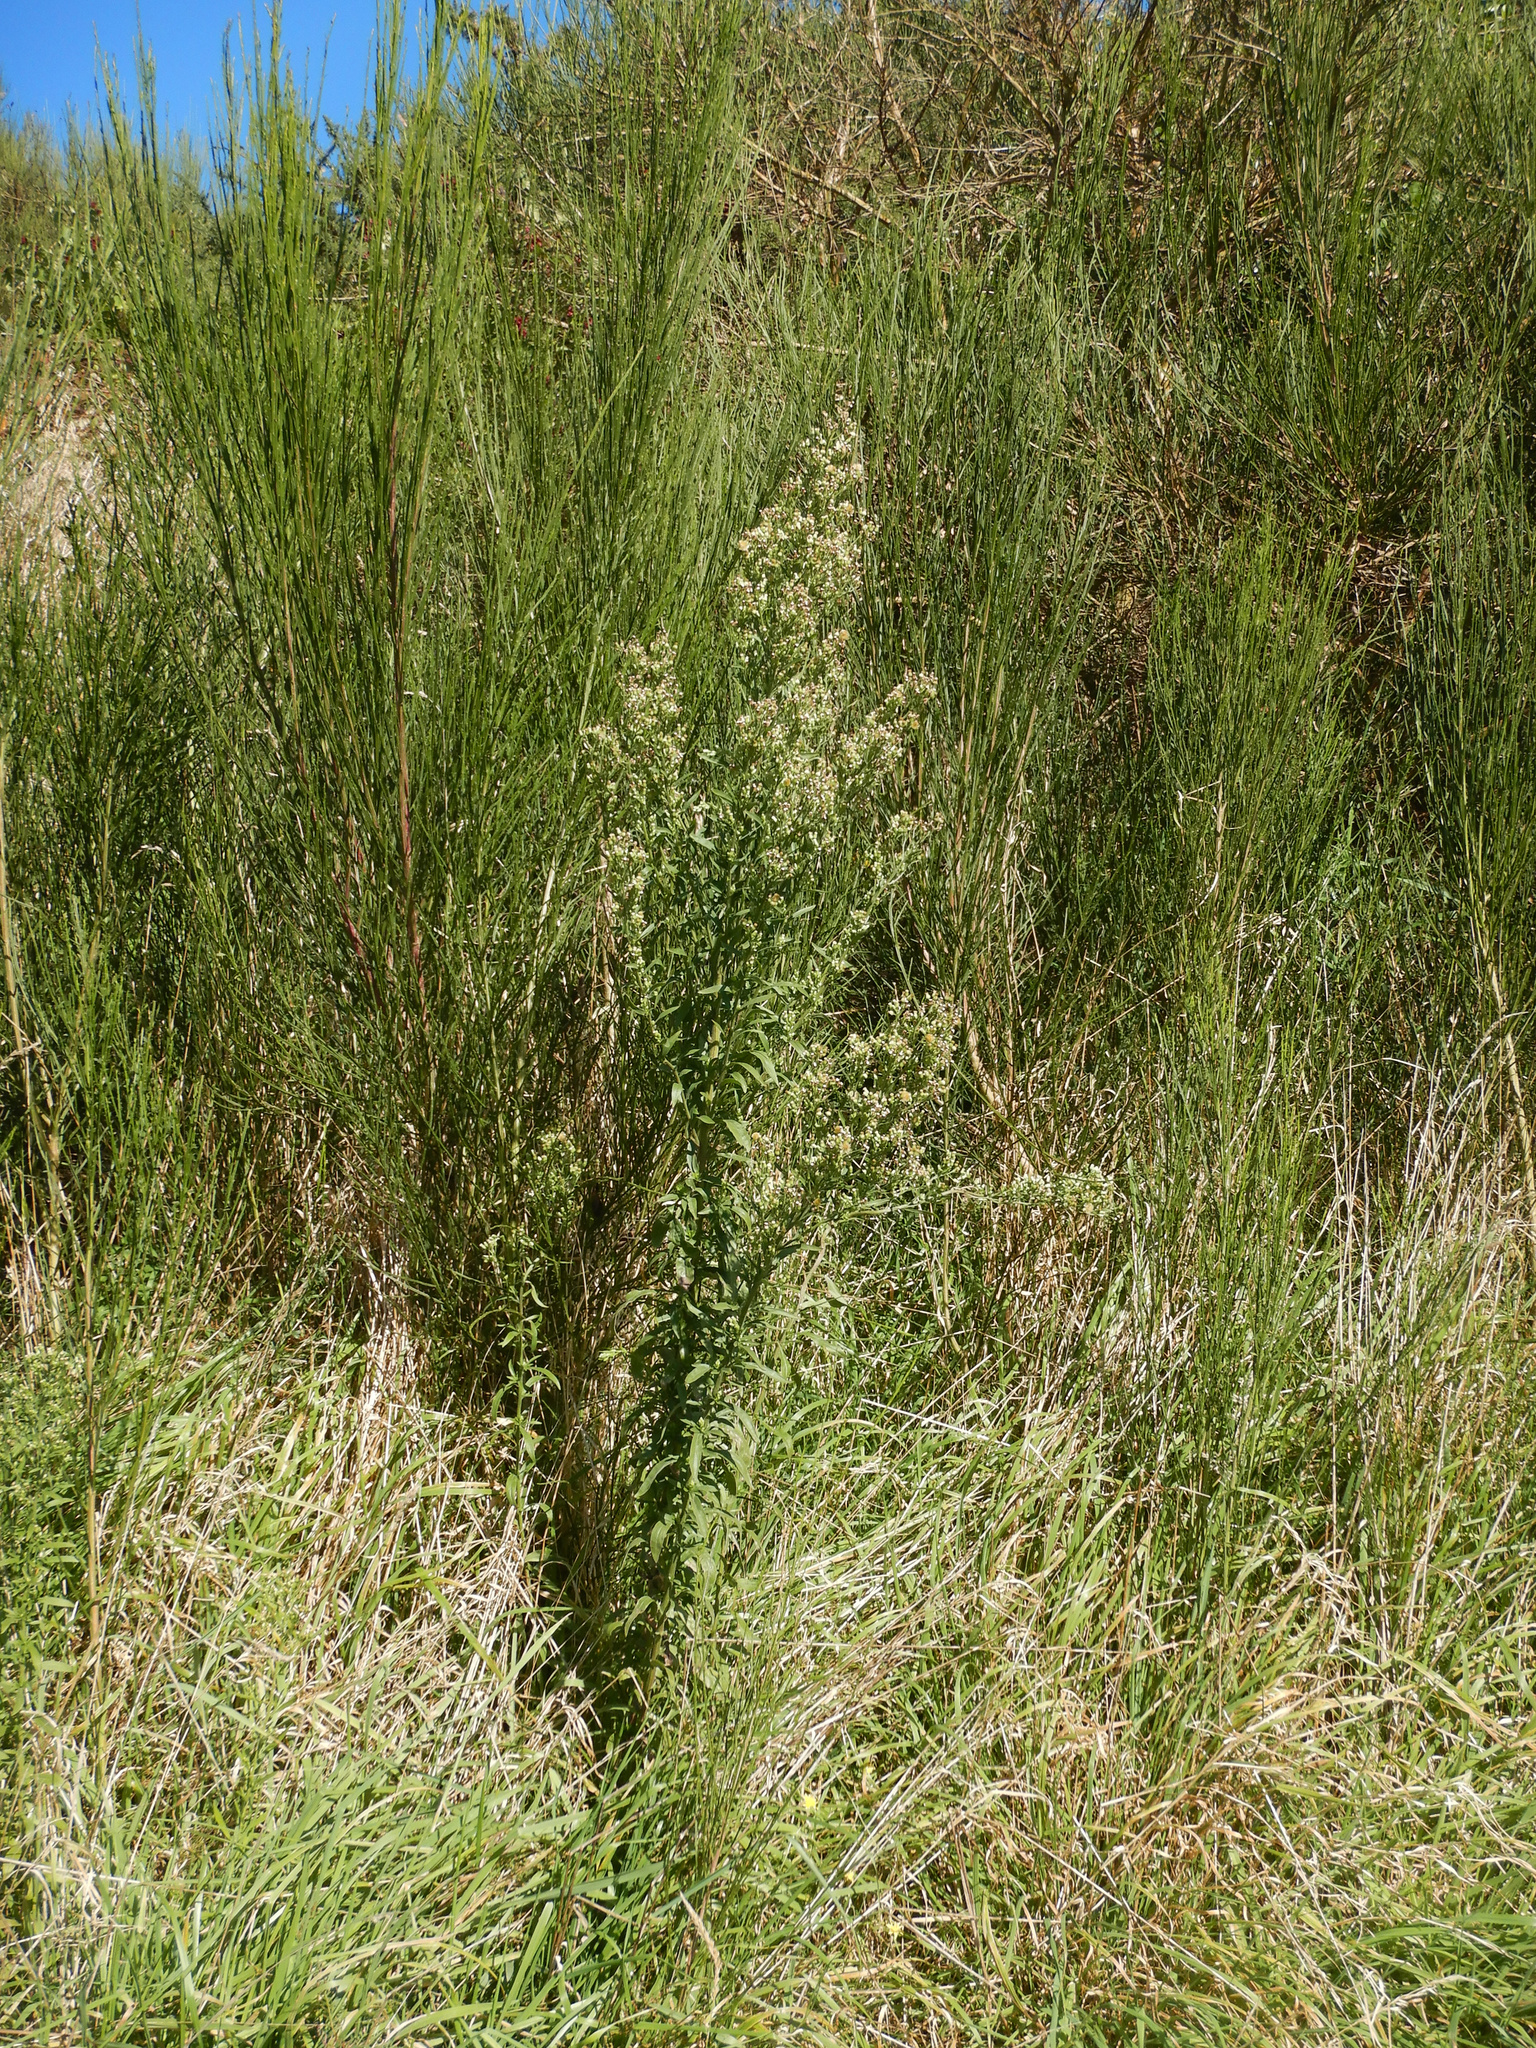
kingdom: Plantae
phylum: Tracheophyta
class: Magnoliopsida
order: Asterales
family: Asteraceae
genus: Erigeron
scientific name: Erigeron sumatrensis
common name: Daisy
